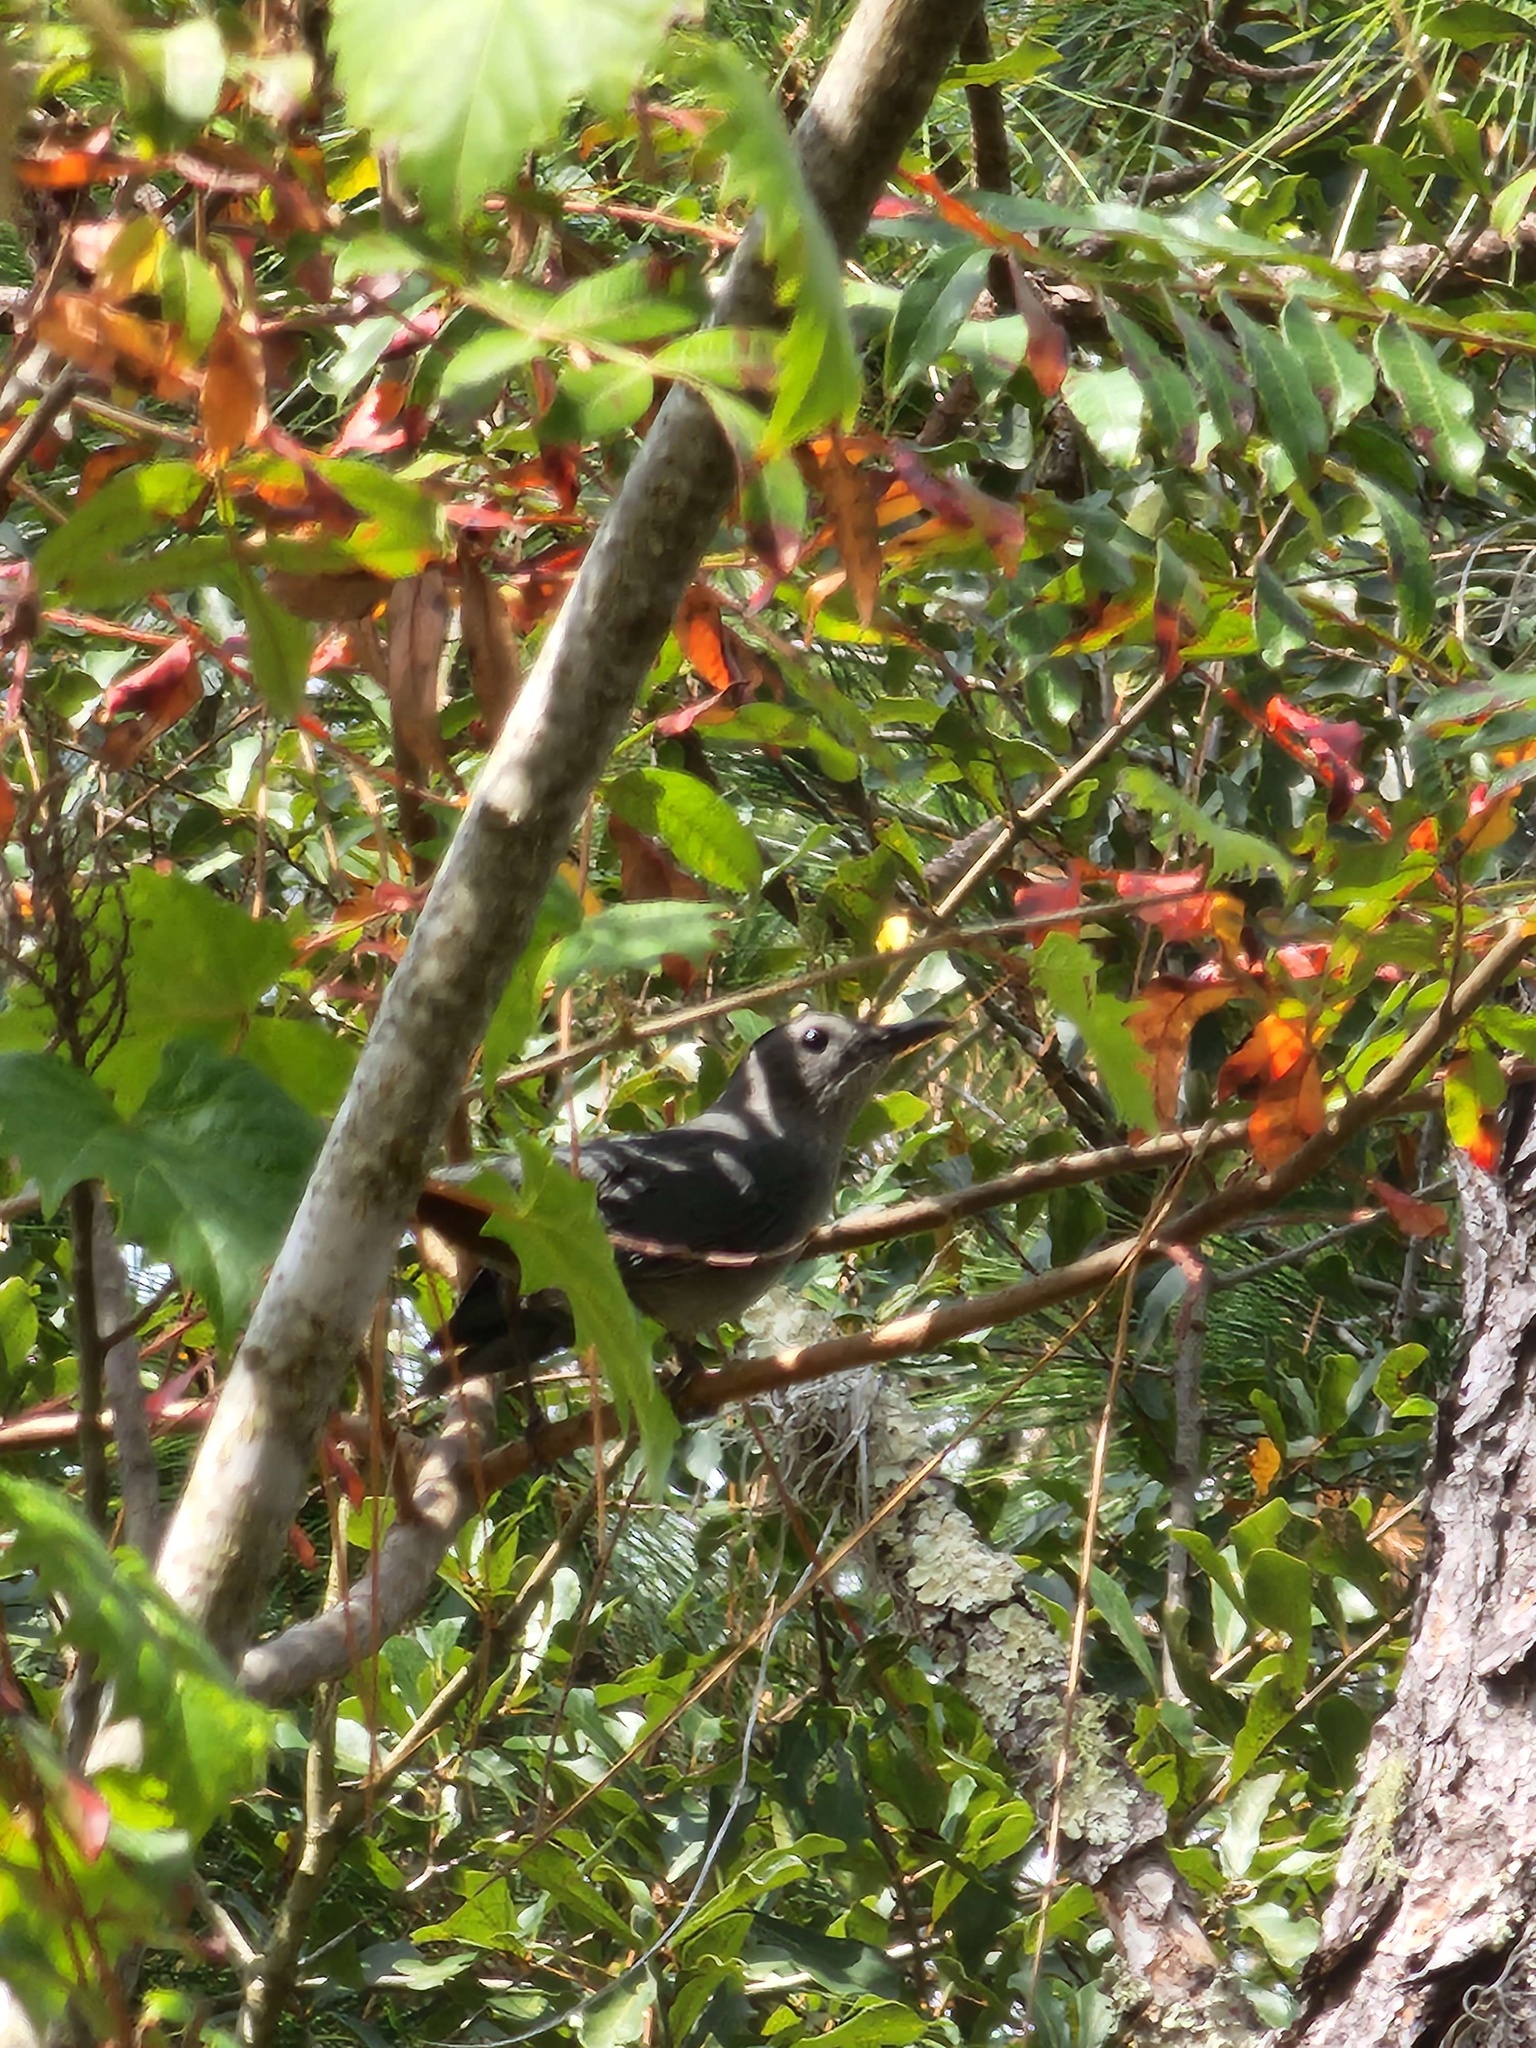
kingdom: Animalia
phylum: Chordata
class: Aves
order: Passeriformes
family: Mimidae
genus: Dumetella
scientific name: Dumetella carolinensis
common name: Gray catbird
